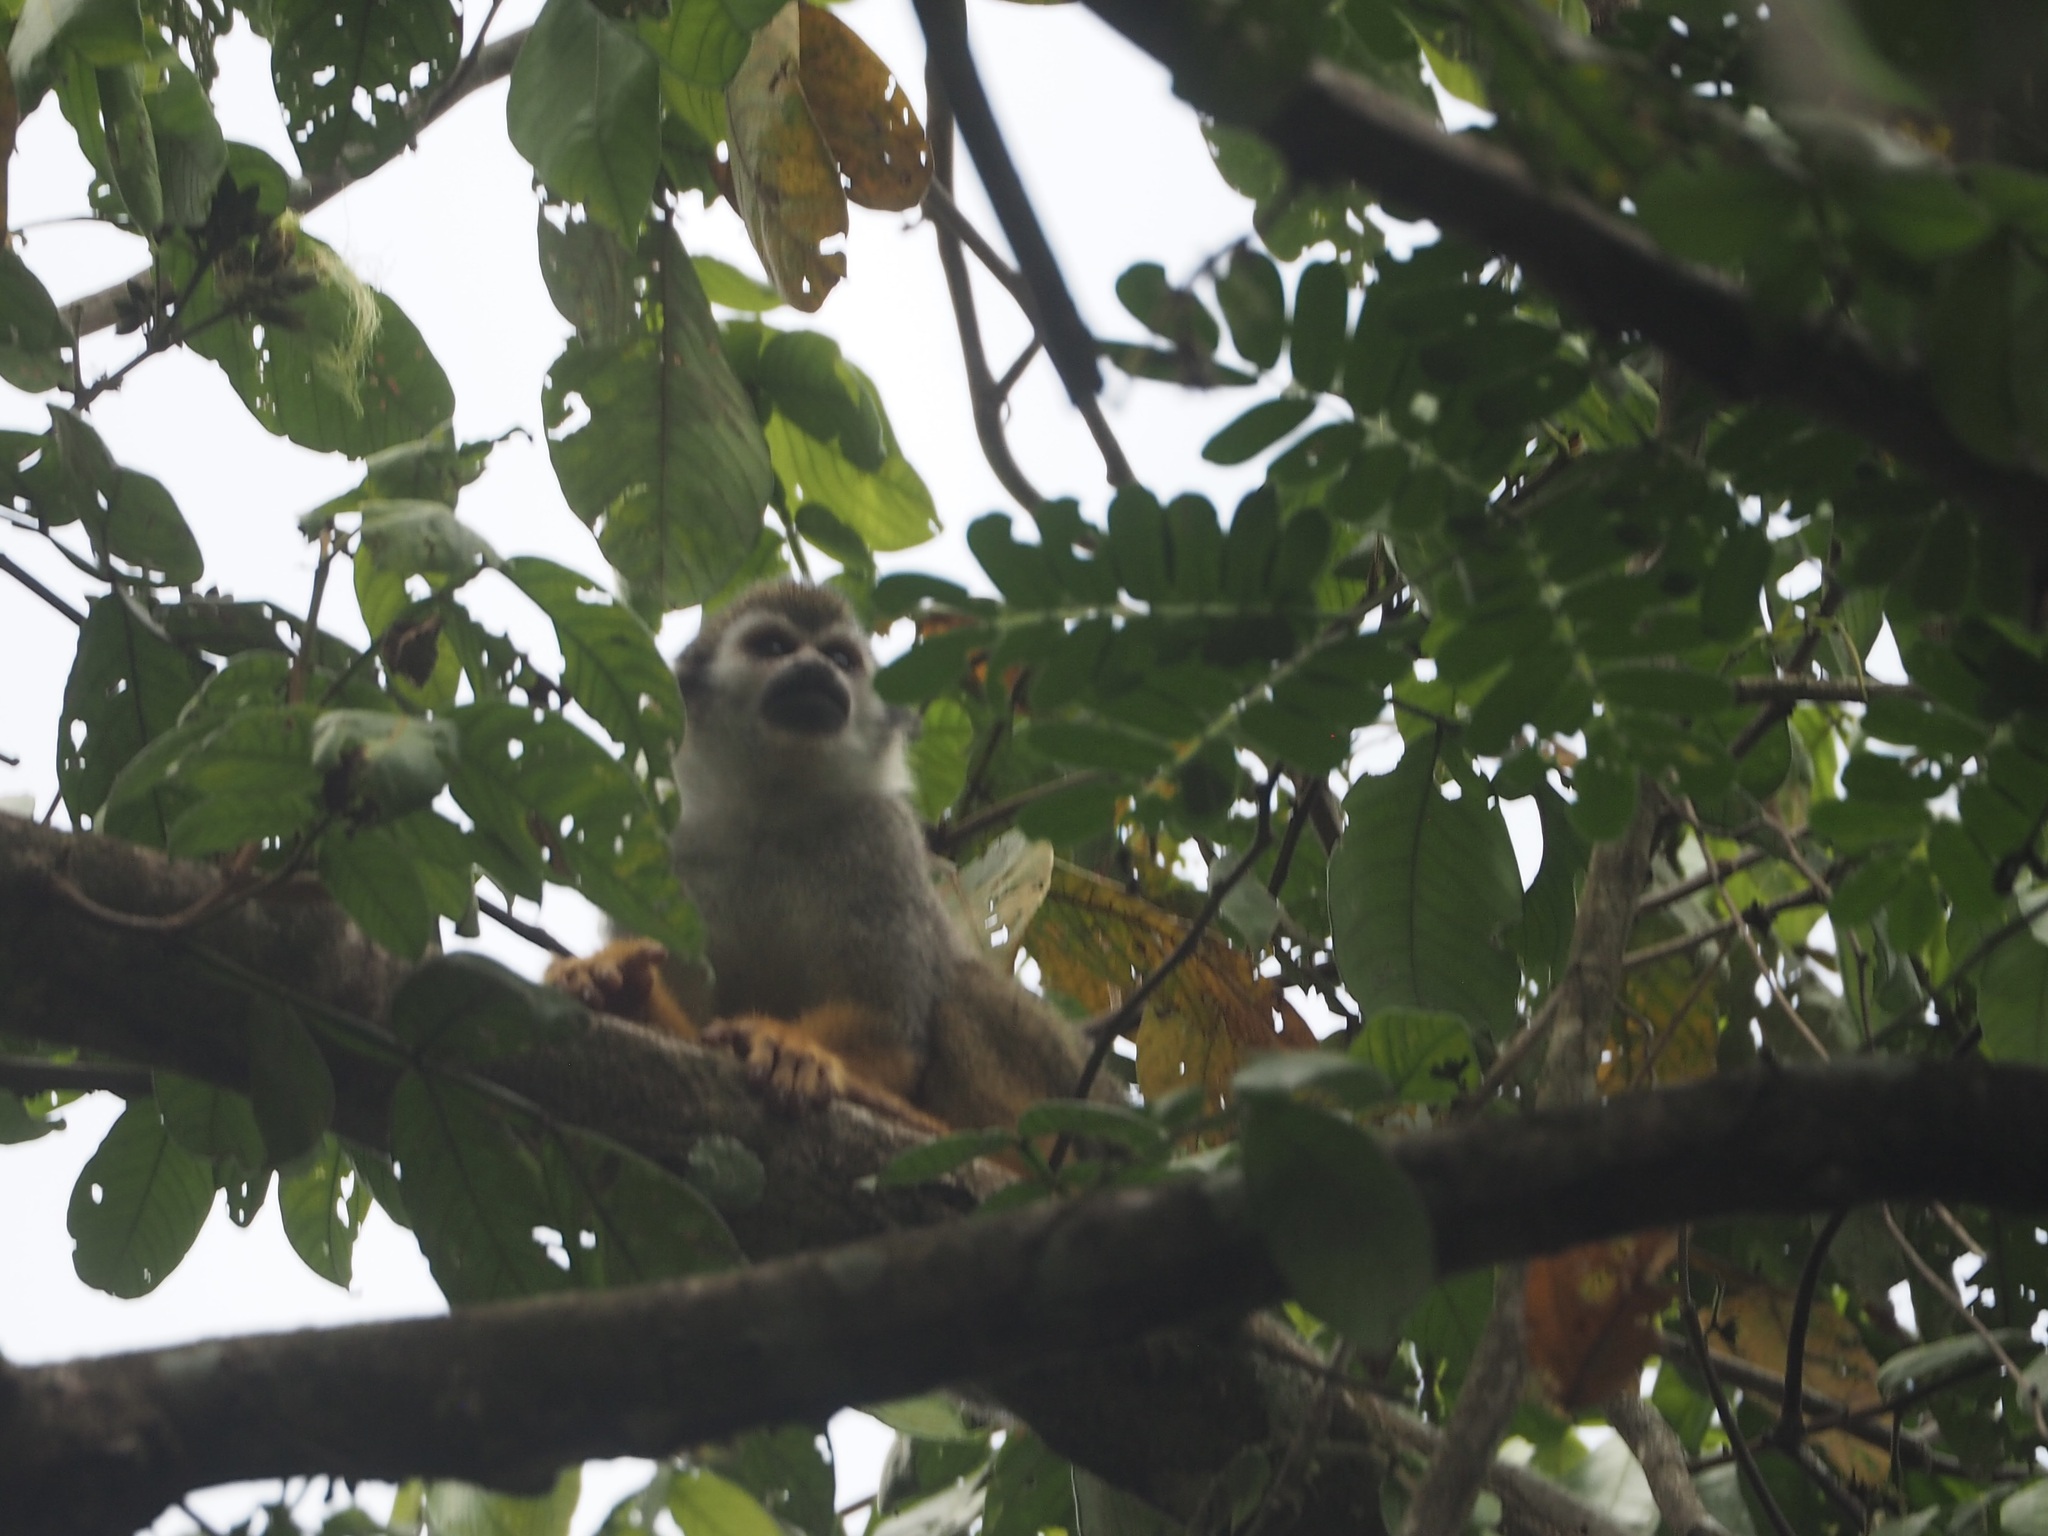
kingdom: Animalia
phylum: Chordata
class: Mammalia
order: Primates
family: Cebidae
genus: Saimiri
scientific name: Saimiri sciureus
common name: Common squirrel monkey
